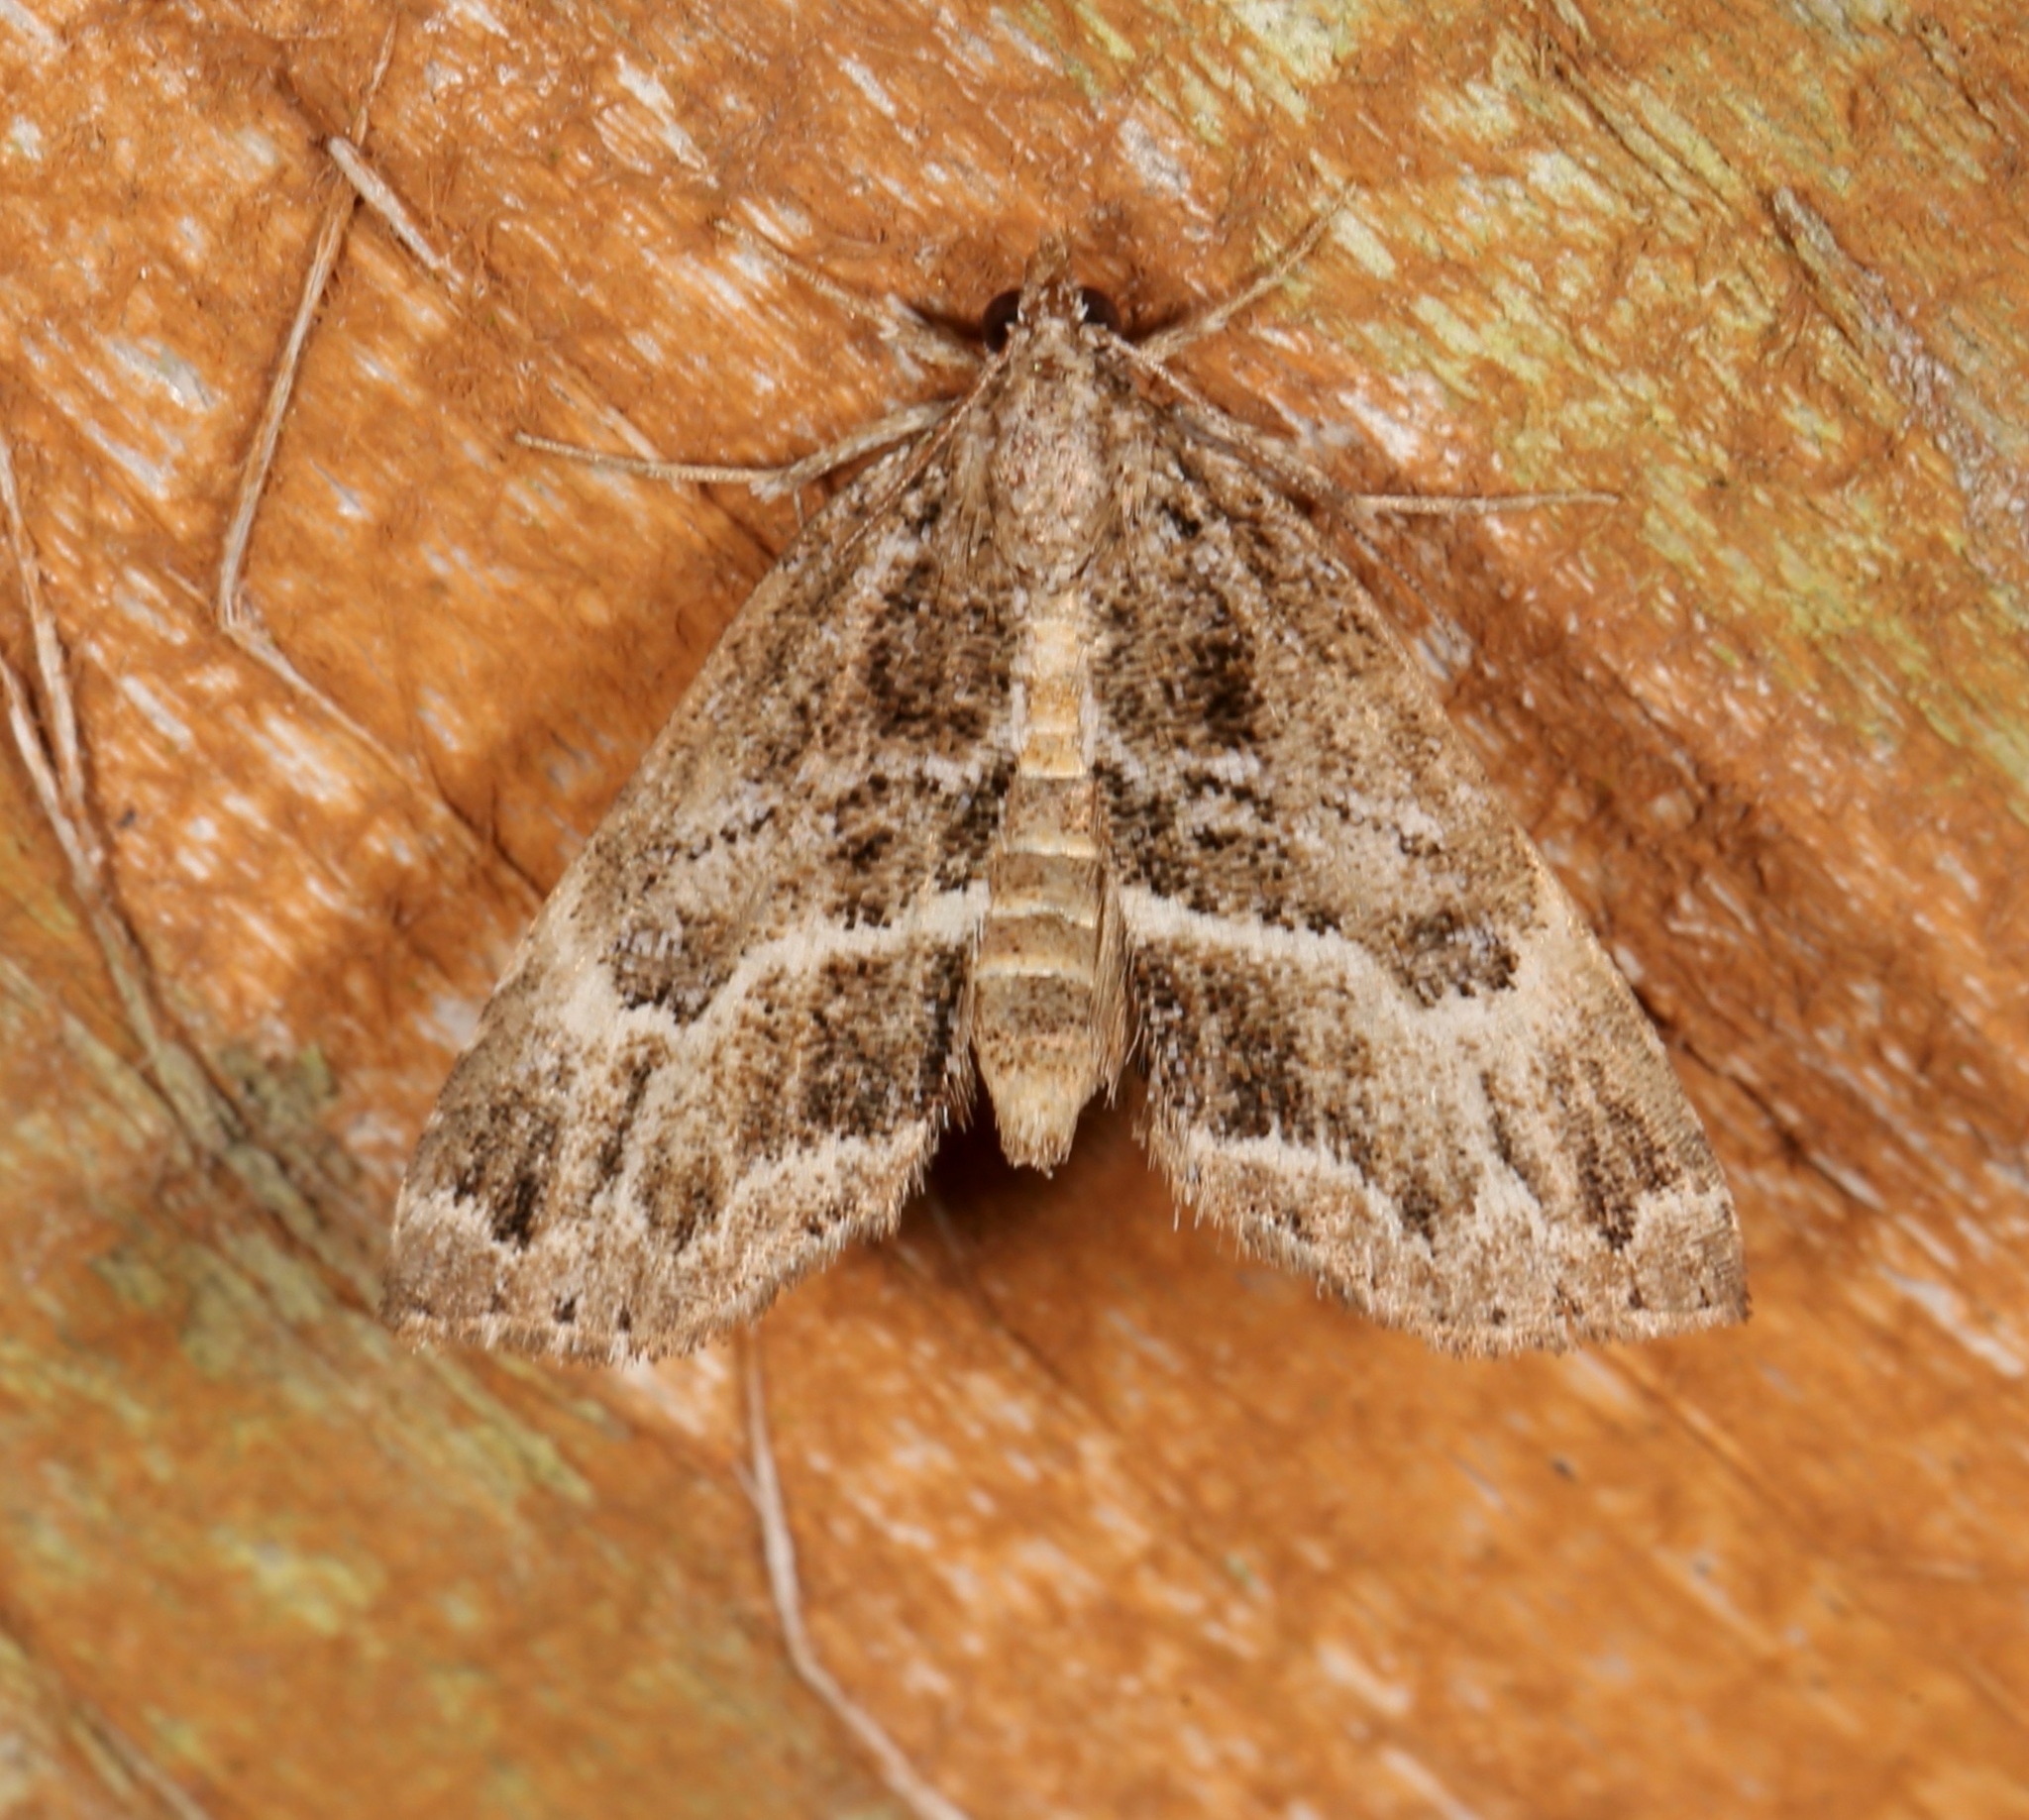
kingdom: Animalia
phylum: Arthropoda
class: Insecta
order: Lepidoptera
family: Erebidae
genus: Cutina
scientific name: Cutina arcuata
